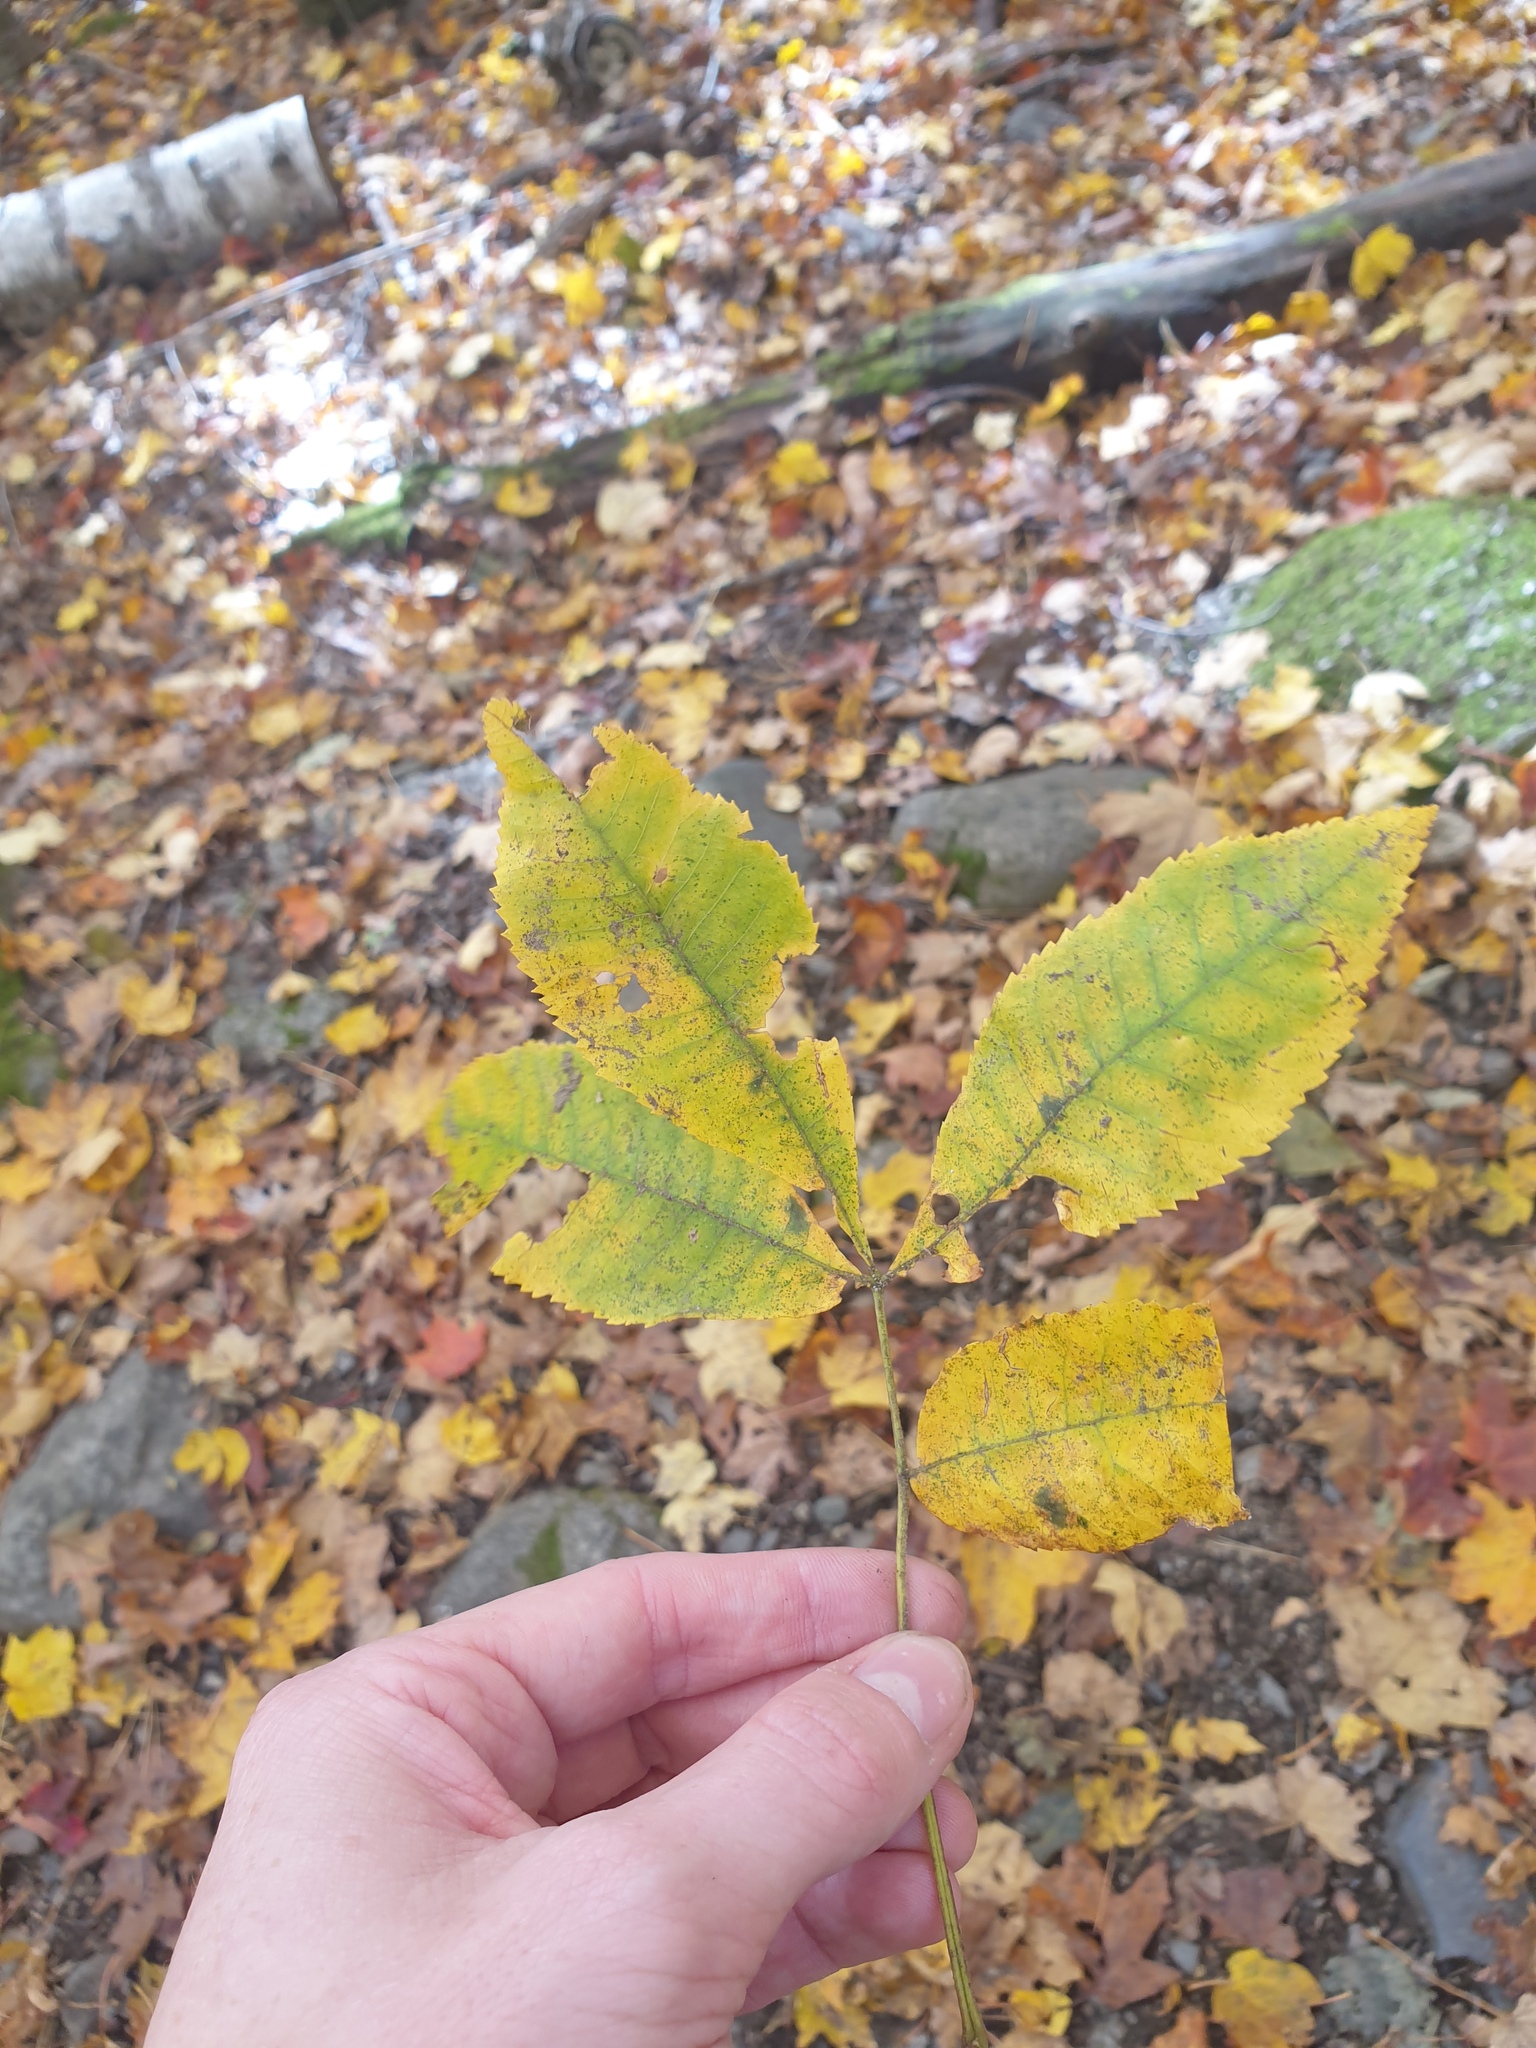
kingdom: Plantae
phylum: Tracheophyta
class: Magnoliopsida
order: Fagales
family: Juglandaceae
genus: Carya
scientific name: Carya cordiformis
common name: Bitternut hickory
